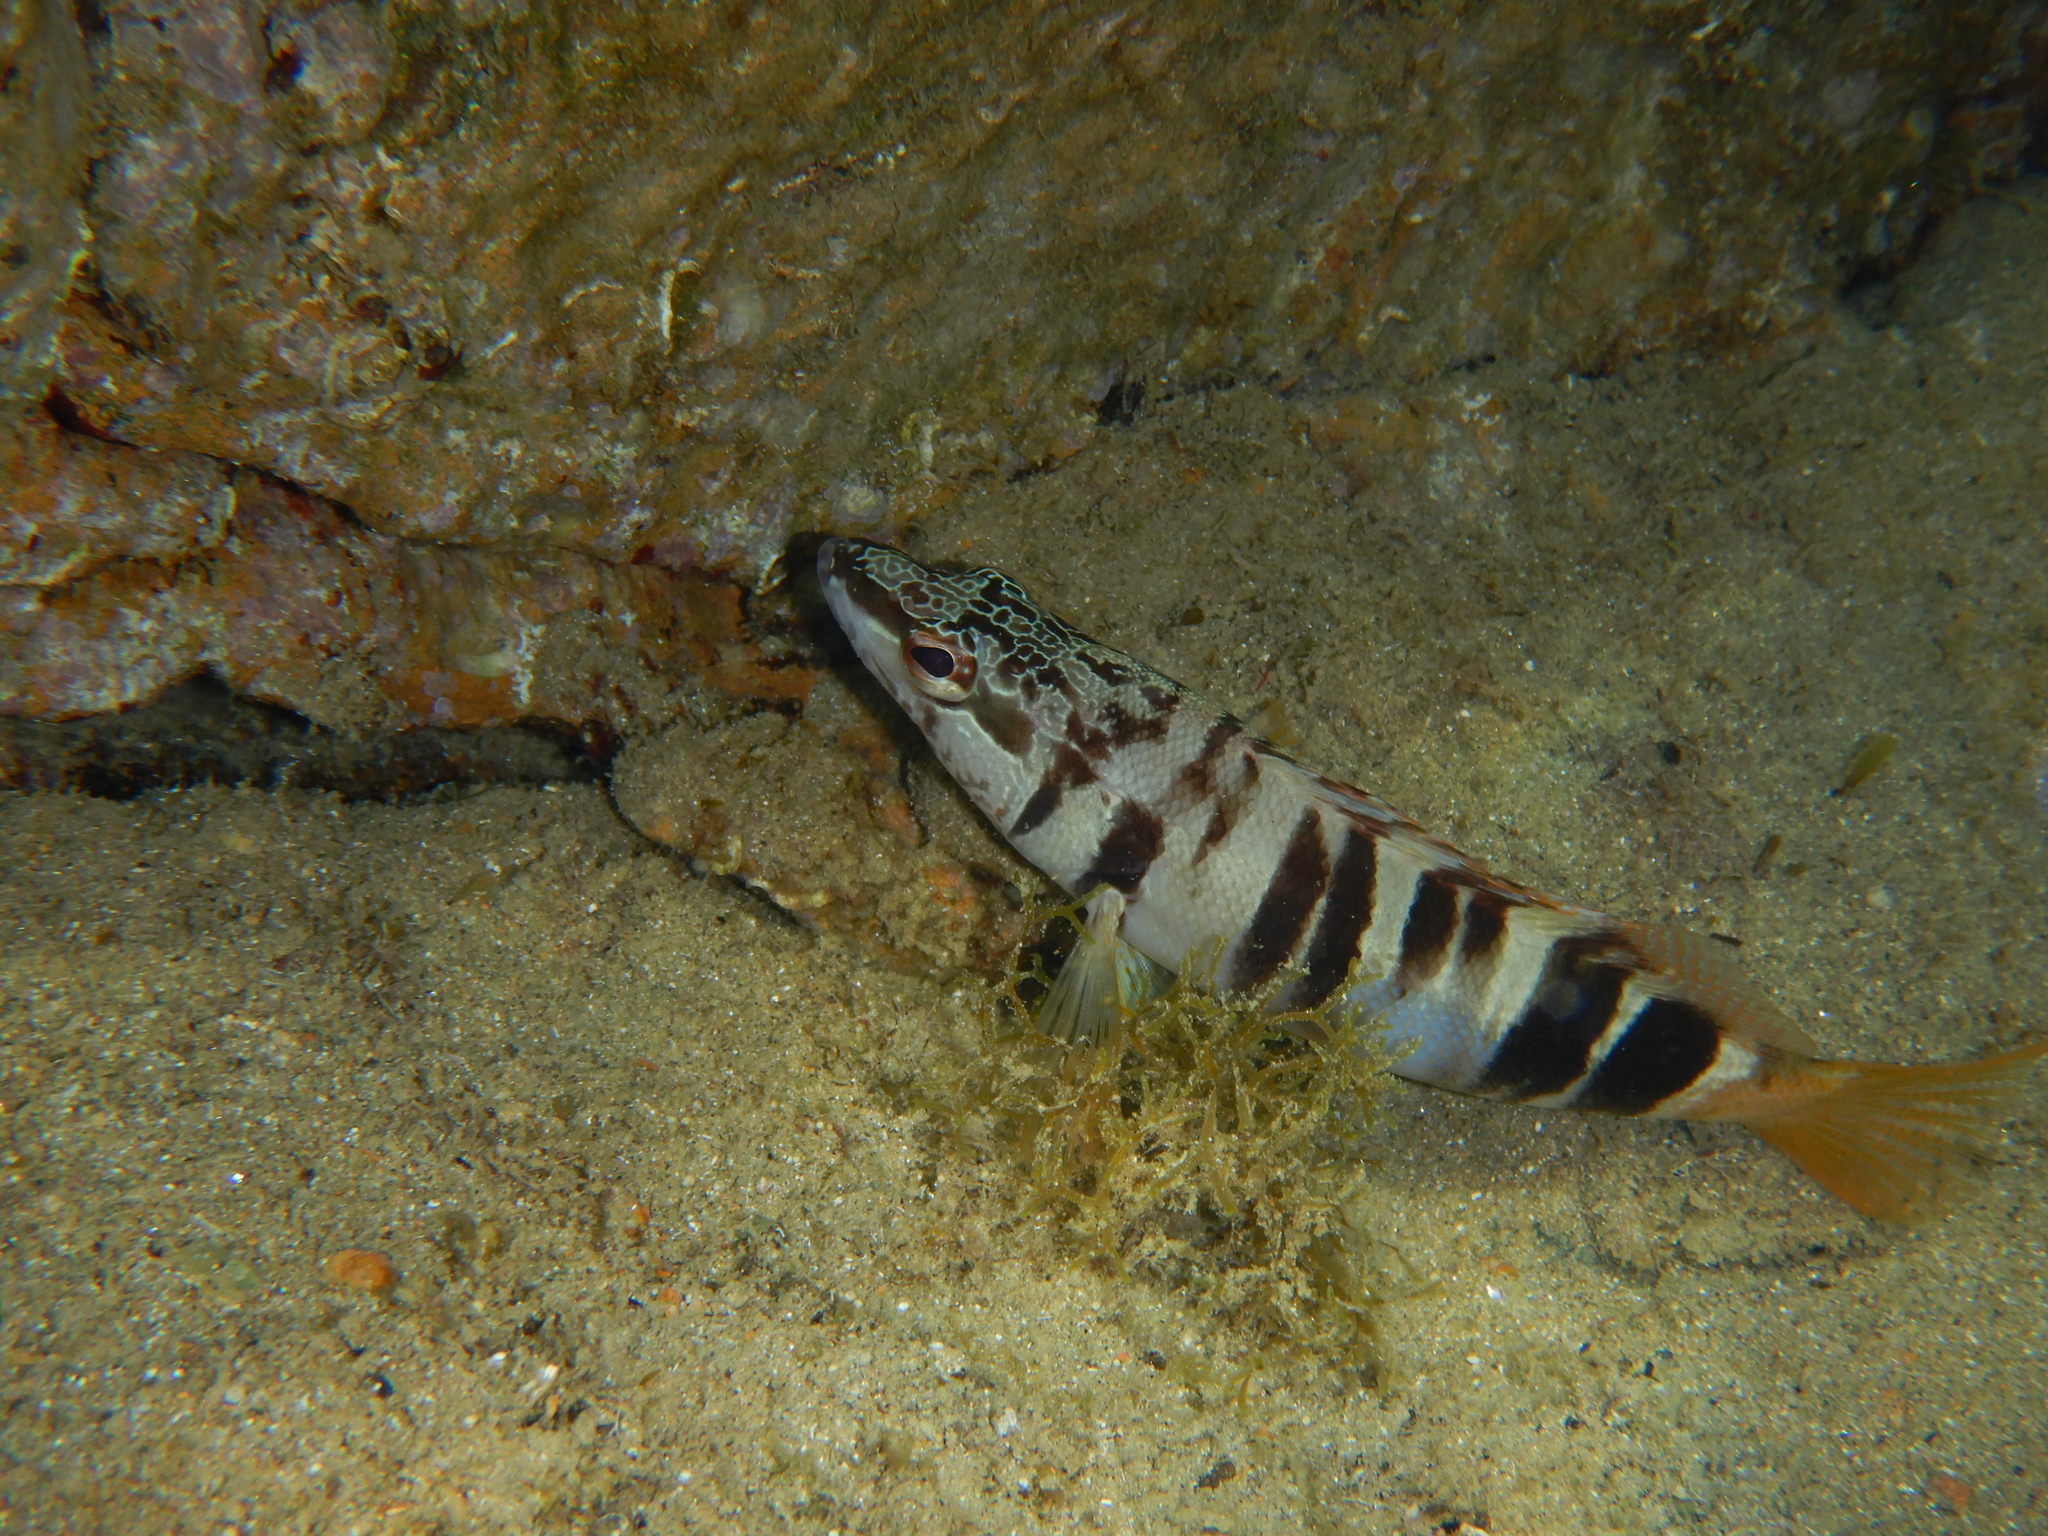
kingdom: Animalia
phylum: Chordata
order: Perciformes
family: Serranidae
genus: Serranus
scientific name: Serranus scriba
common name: Painted comber
